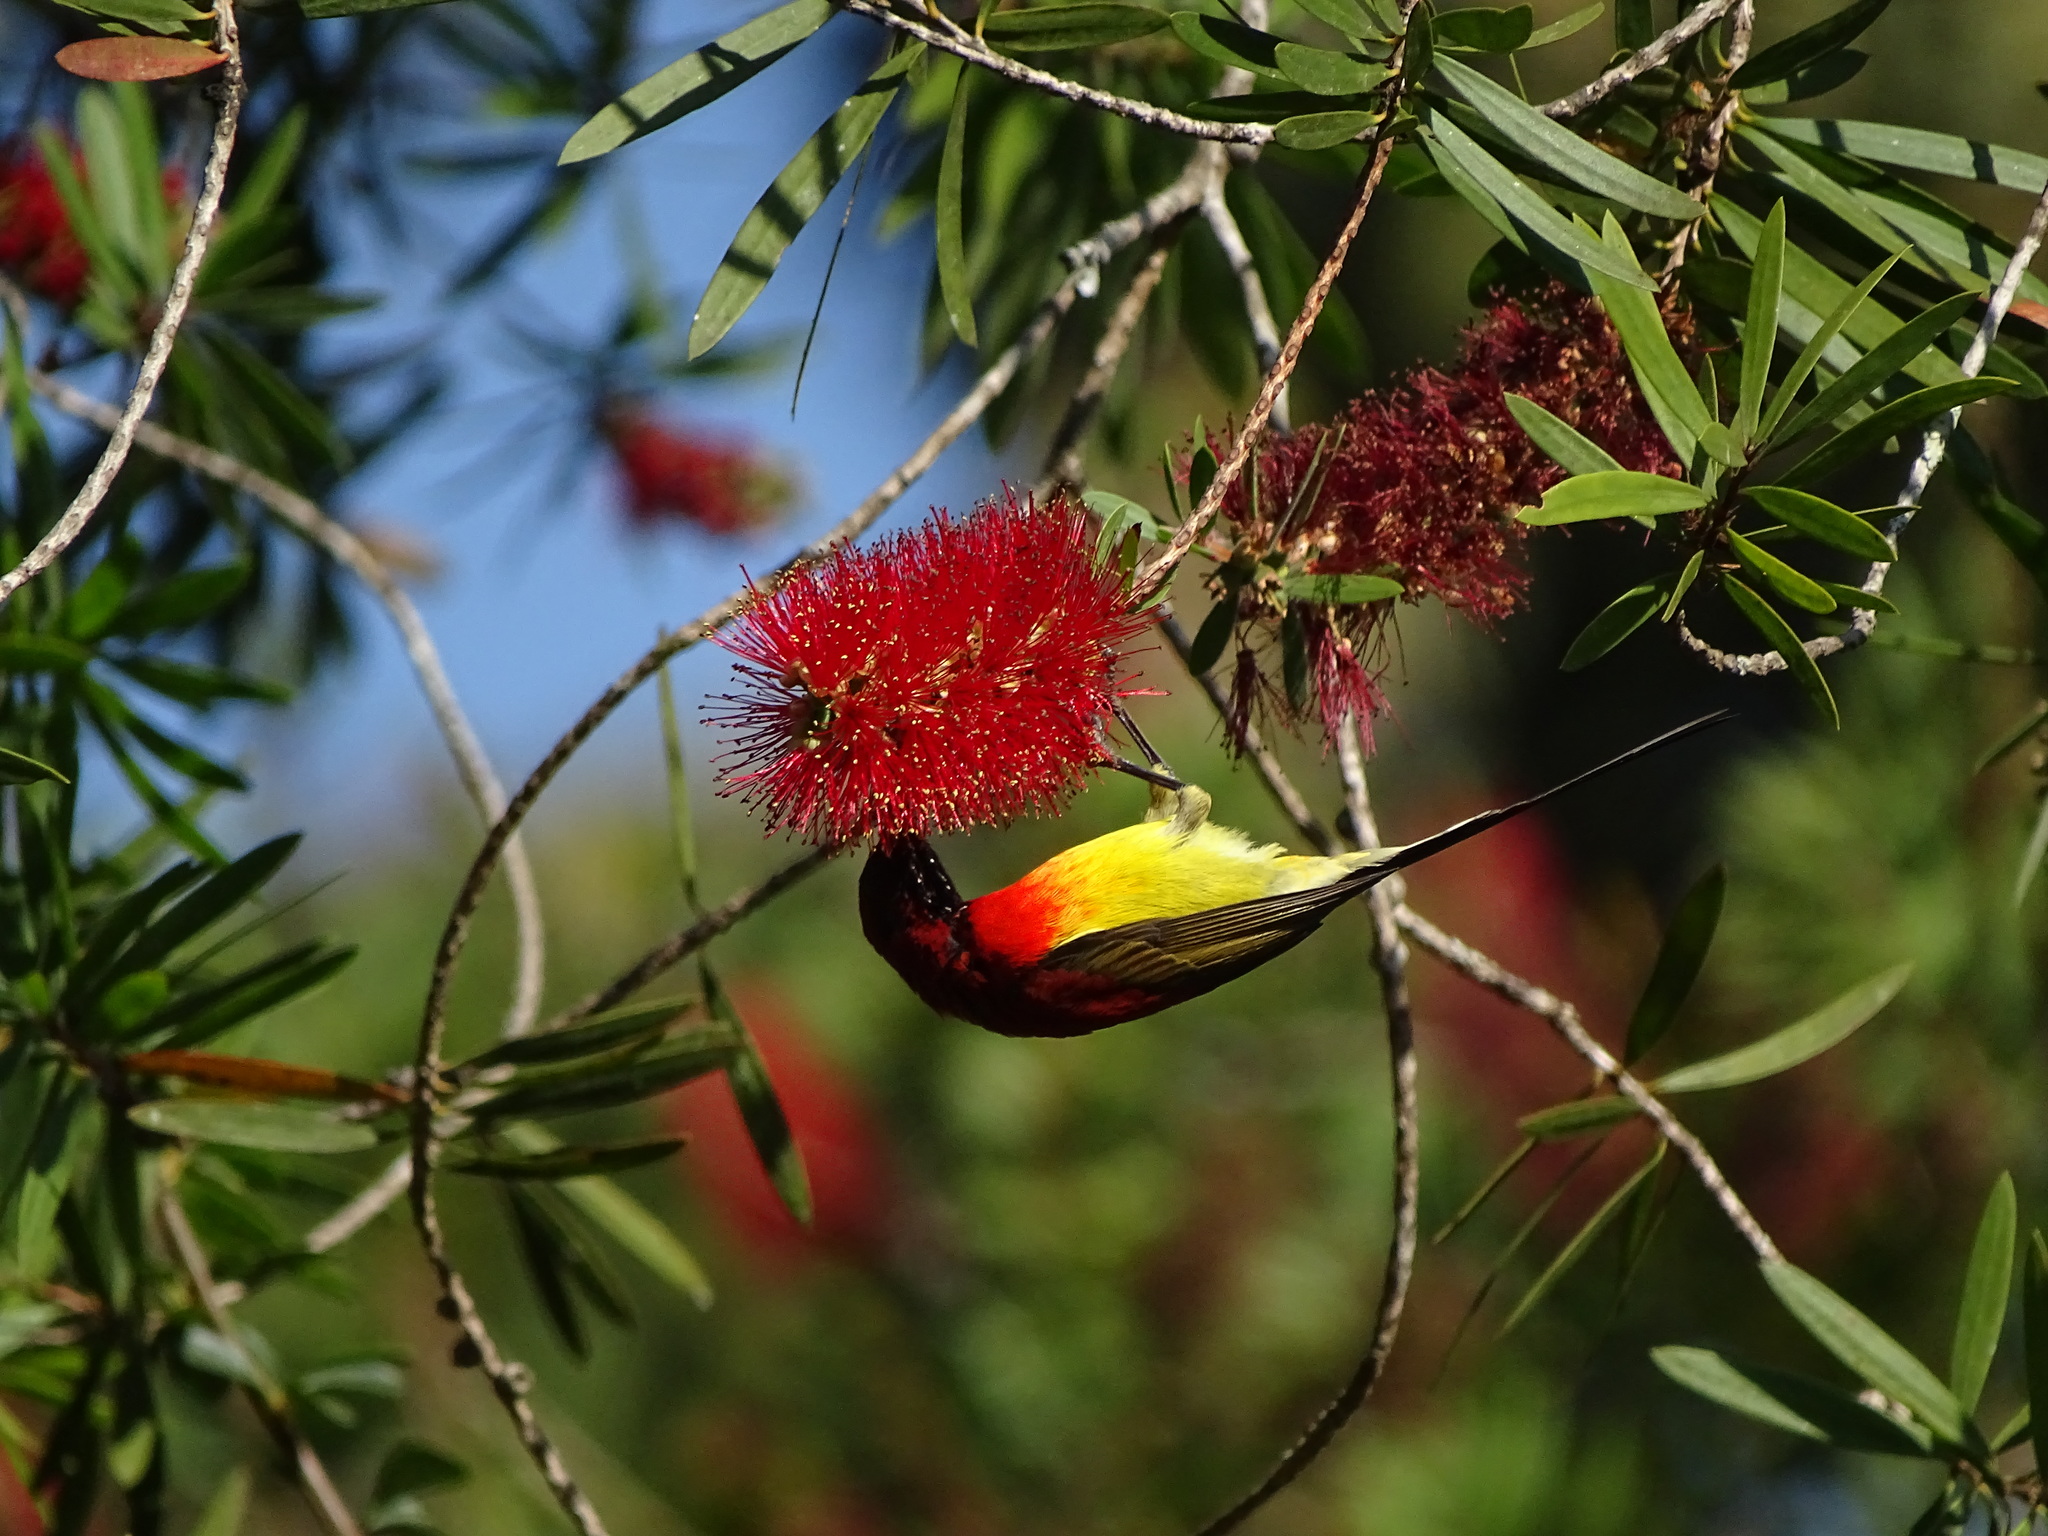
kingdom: Animalia
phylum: Chordata
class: Aves
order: Passeriformes
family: Nectariniidae
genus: Aethopyga
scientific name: Aethopyga gouldiae
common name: Mrs. gould's sunbird
